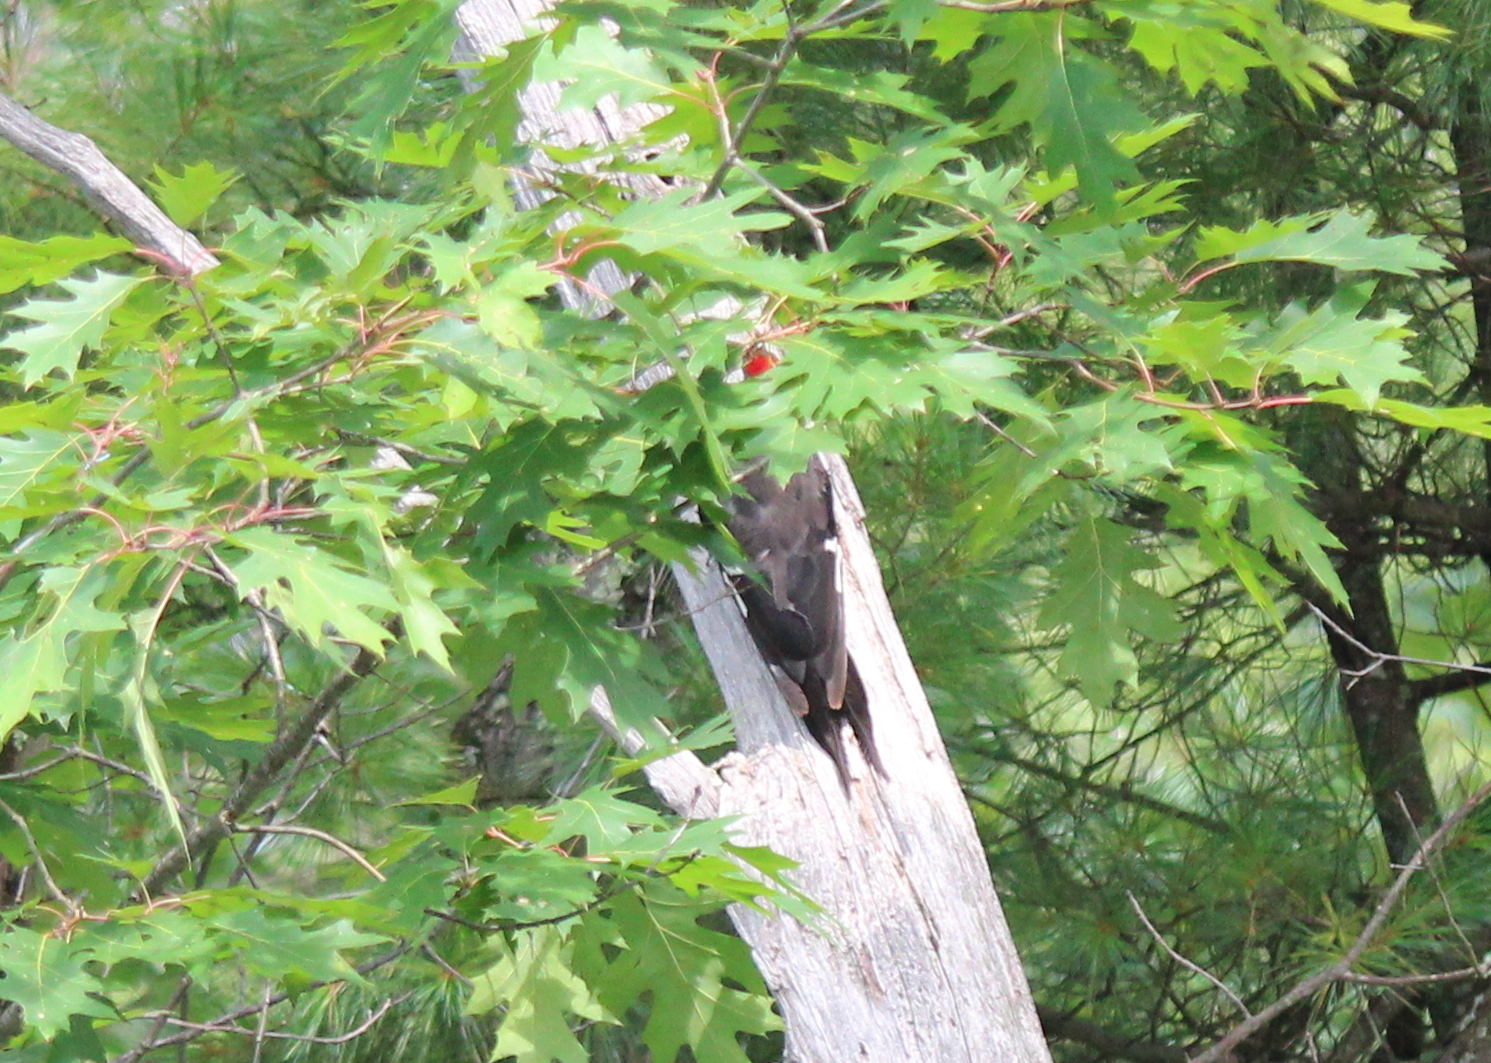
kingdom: Animalia
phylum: Chordata
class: Aves
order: Piciformes
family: Picidae
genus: Dryocopus
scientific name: Dryocopus pileatus
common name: Pileated woodpecker
